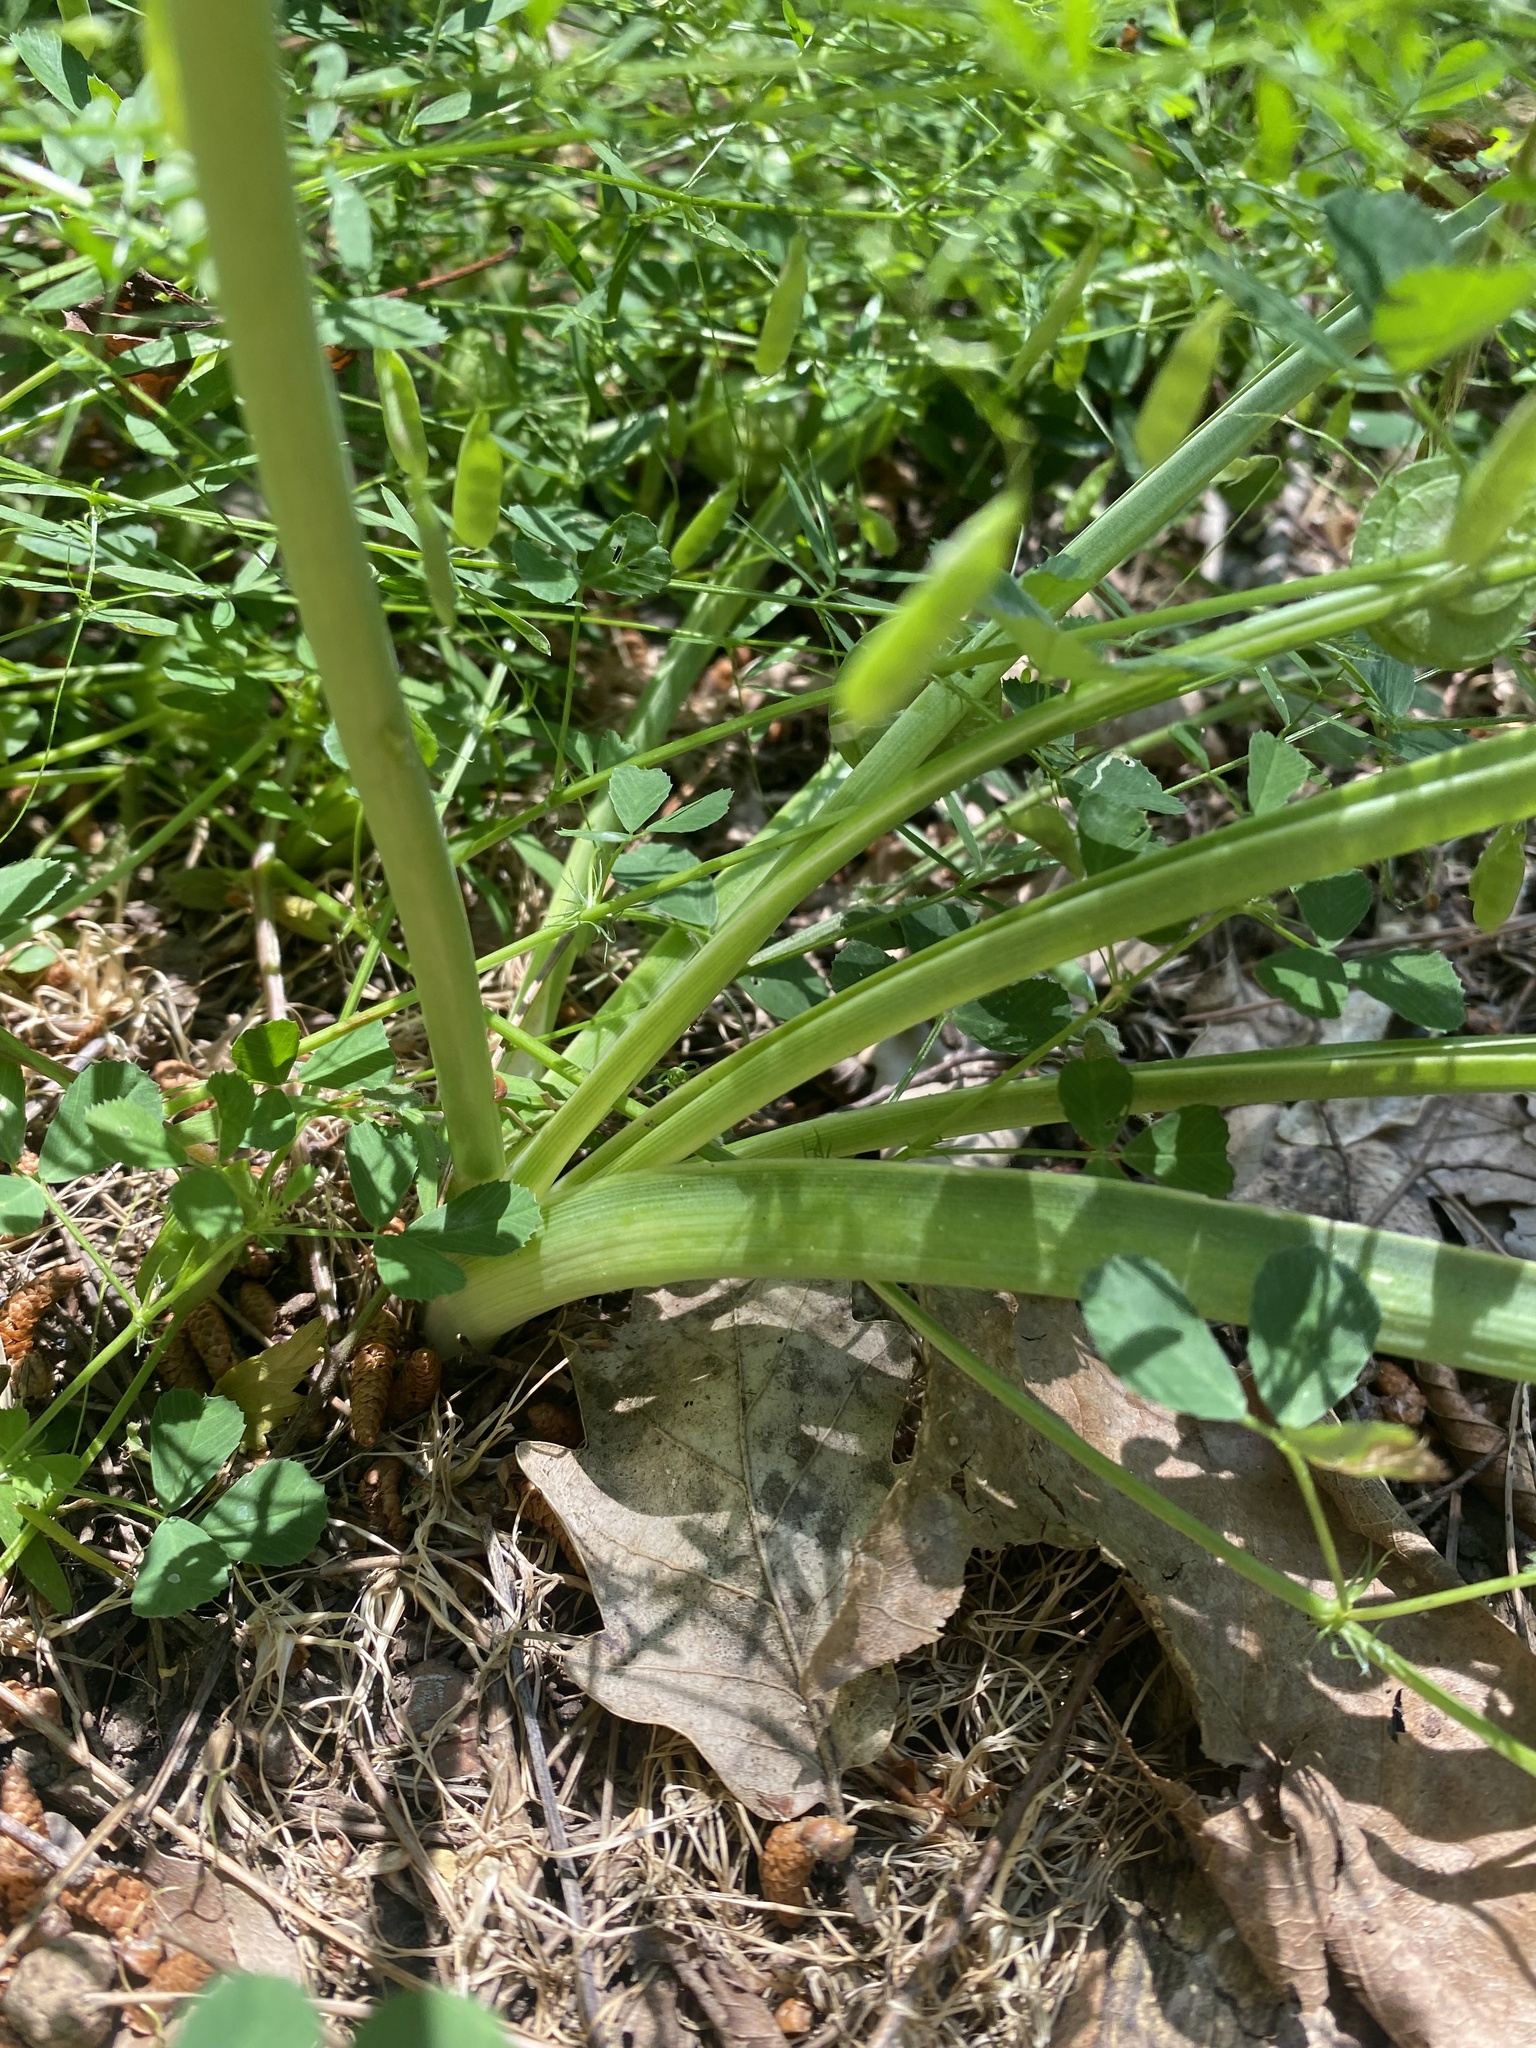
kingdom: Plantae
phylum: Tracheophyta
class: Liliopsida
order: Asparagales
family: Asparagaceae
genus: Ornithogalum
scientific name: Ornithogalum ponticum
